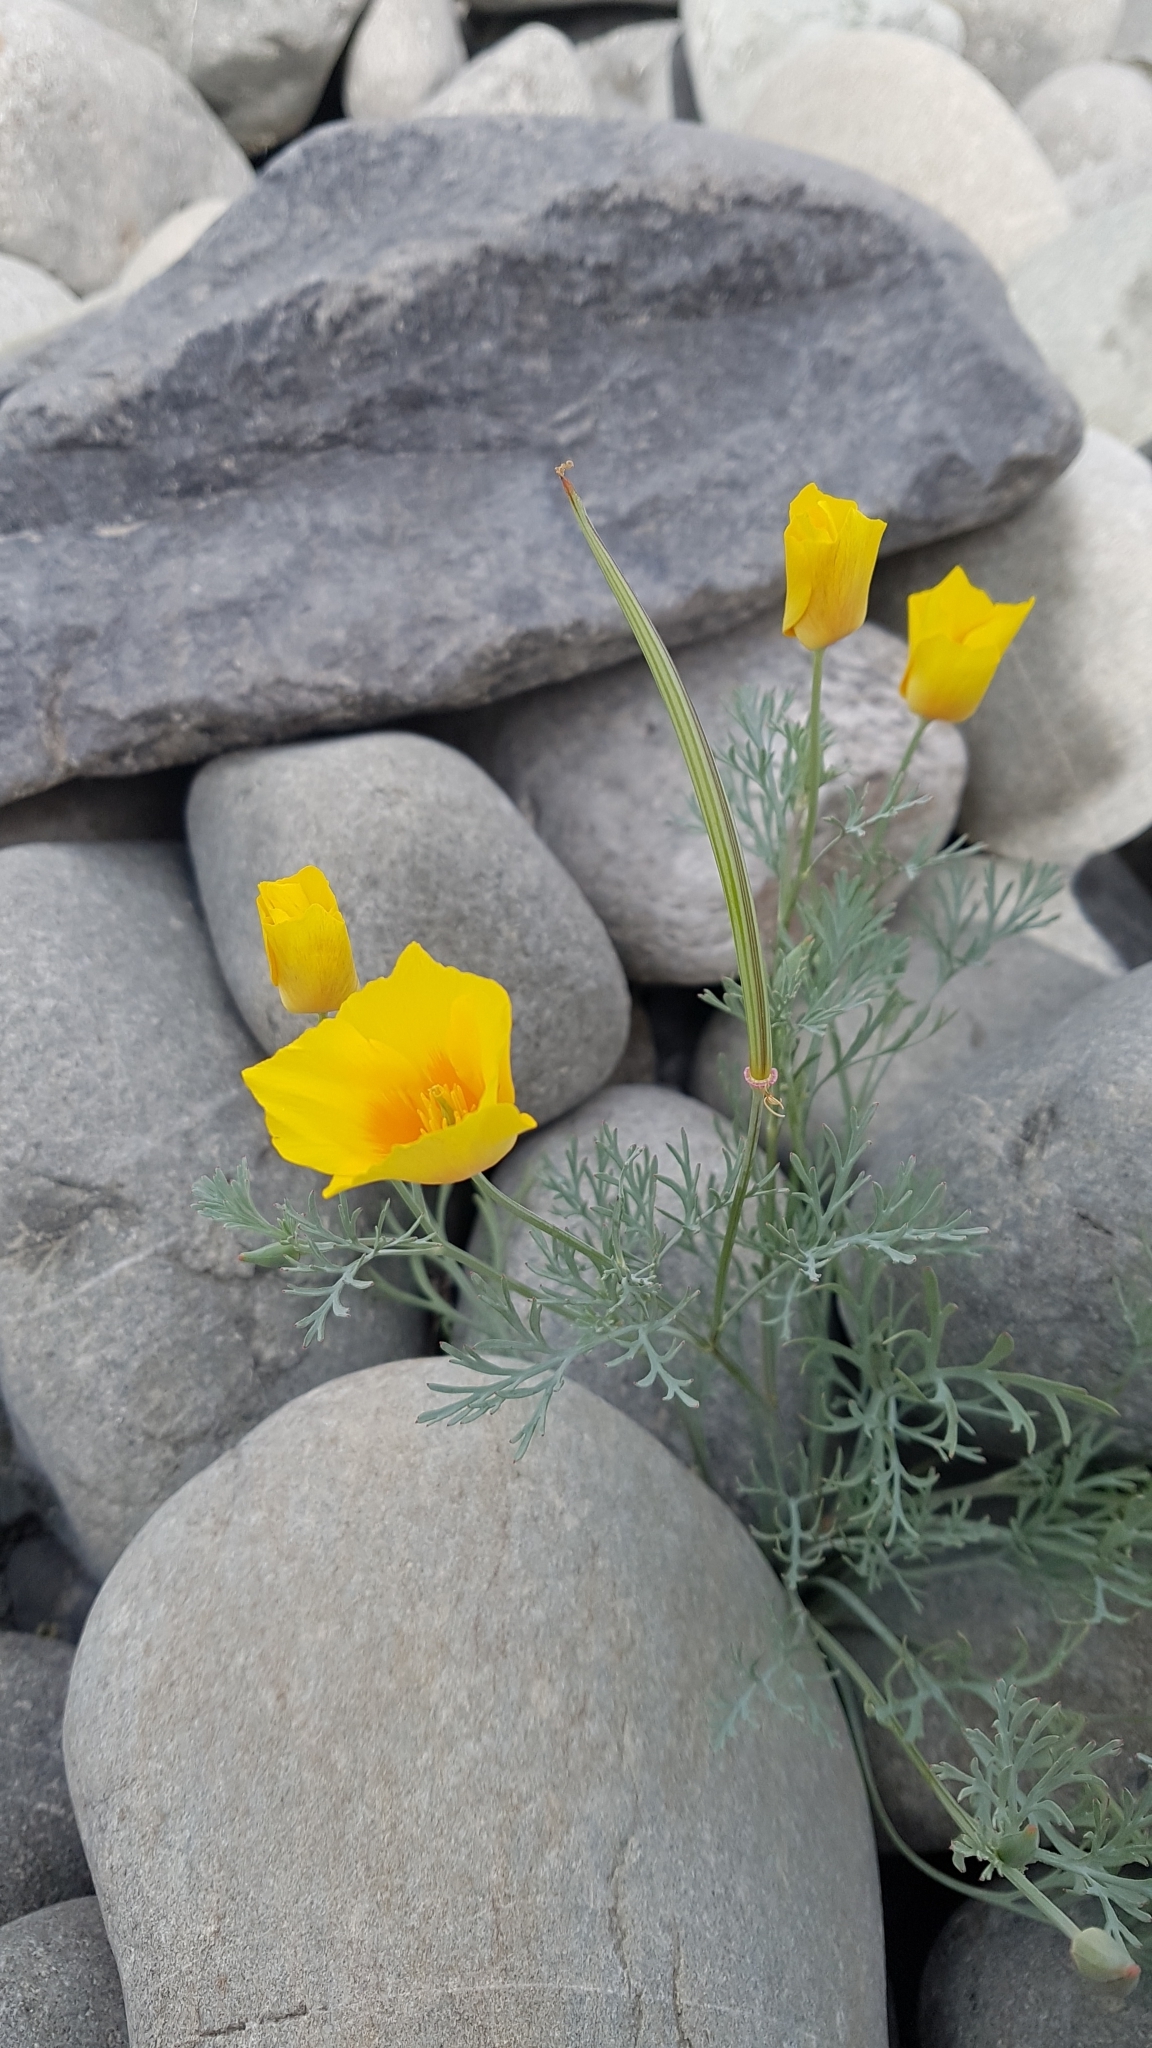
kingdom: Plantae
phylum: Tracheophyta
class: Magnoliopsida
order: Ranunculales
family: Papaveraceae
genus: Eschscholzia
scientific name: Eschscholzia californica
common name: California poppy
